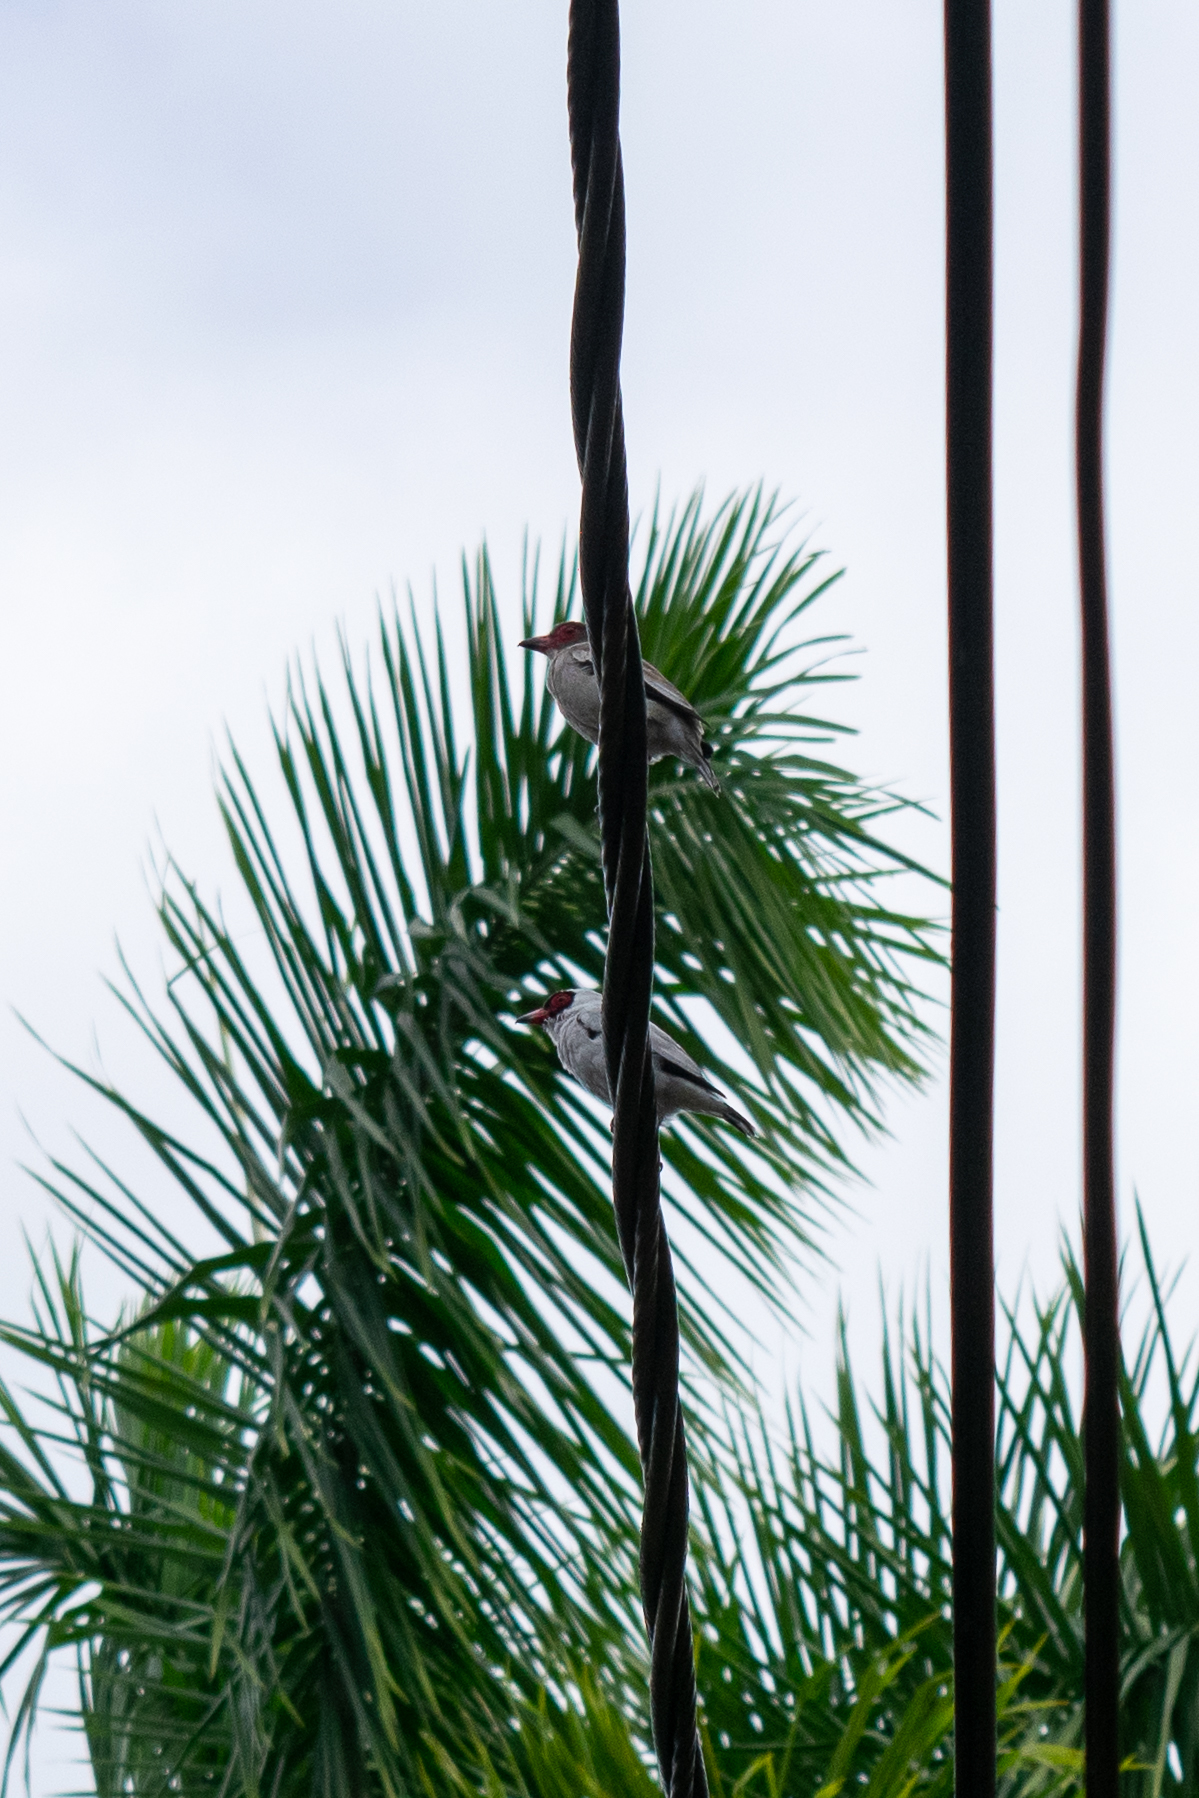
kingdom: Animalia
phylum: Chordata
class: Aves
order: Passeriformes
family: Cotingidae
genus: Tityra
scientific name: Tityra semifasciata
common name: Masked tityra
